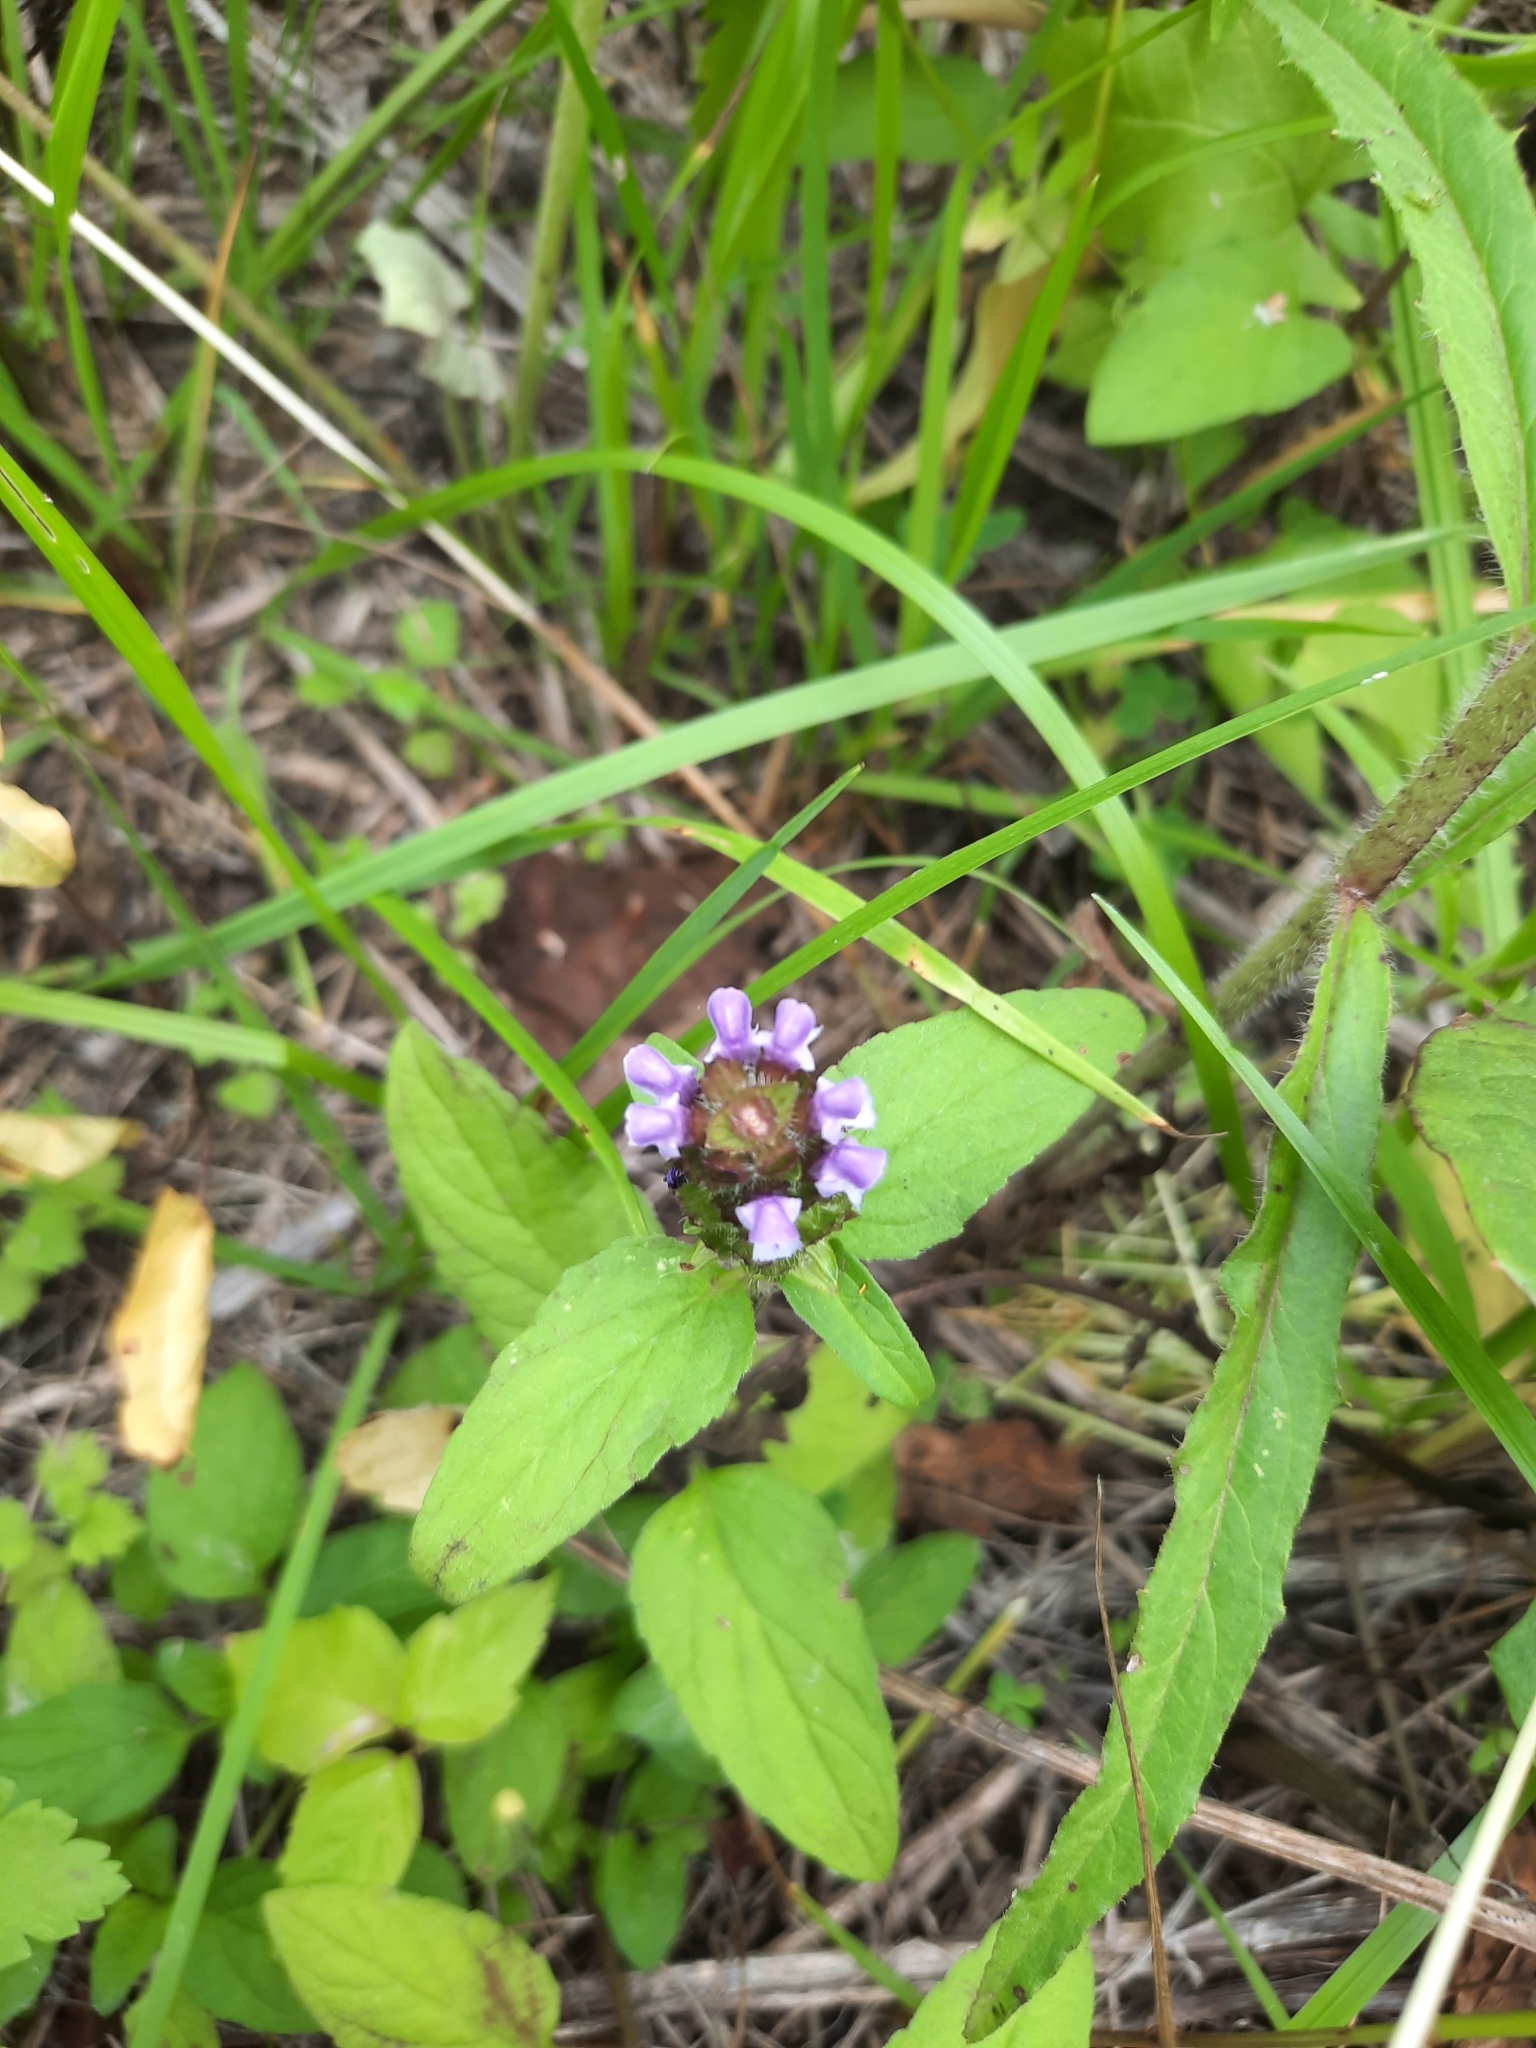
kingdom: Plantae
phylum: Tracheophyta
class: Magnoliopsida
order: Lamiales
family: Lamiaceae
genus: Prunella
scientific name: Prunella vulgaris
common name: Heal-all
